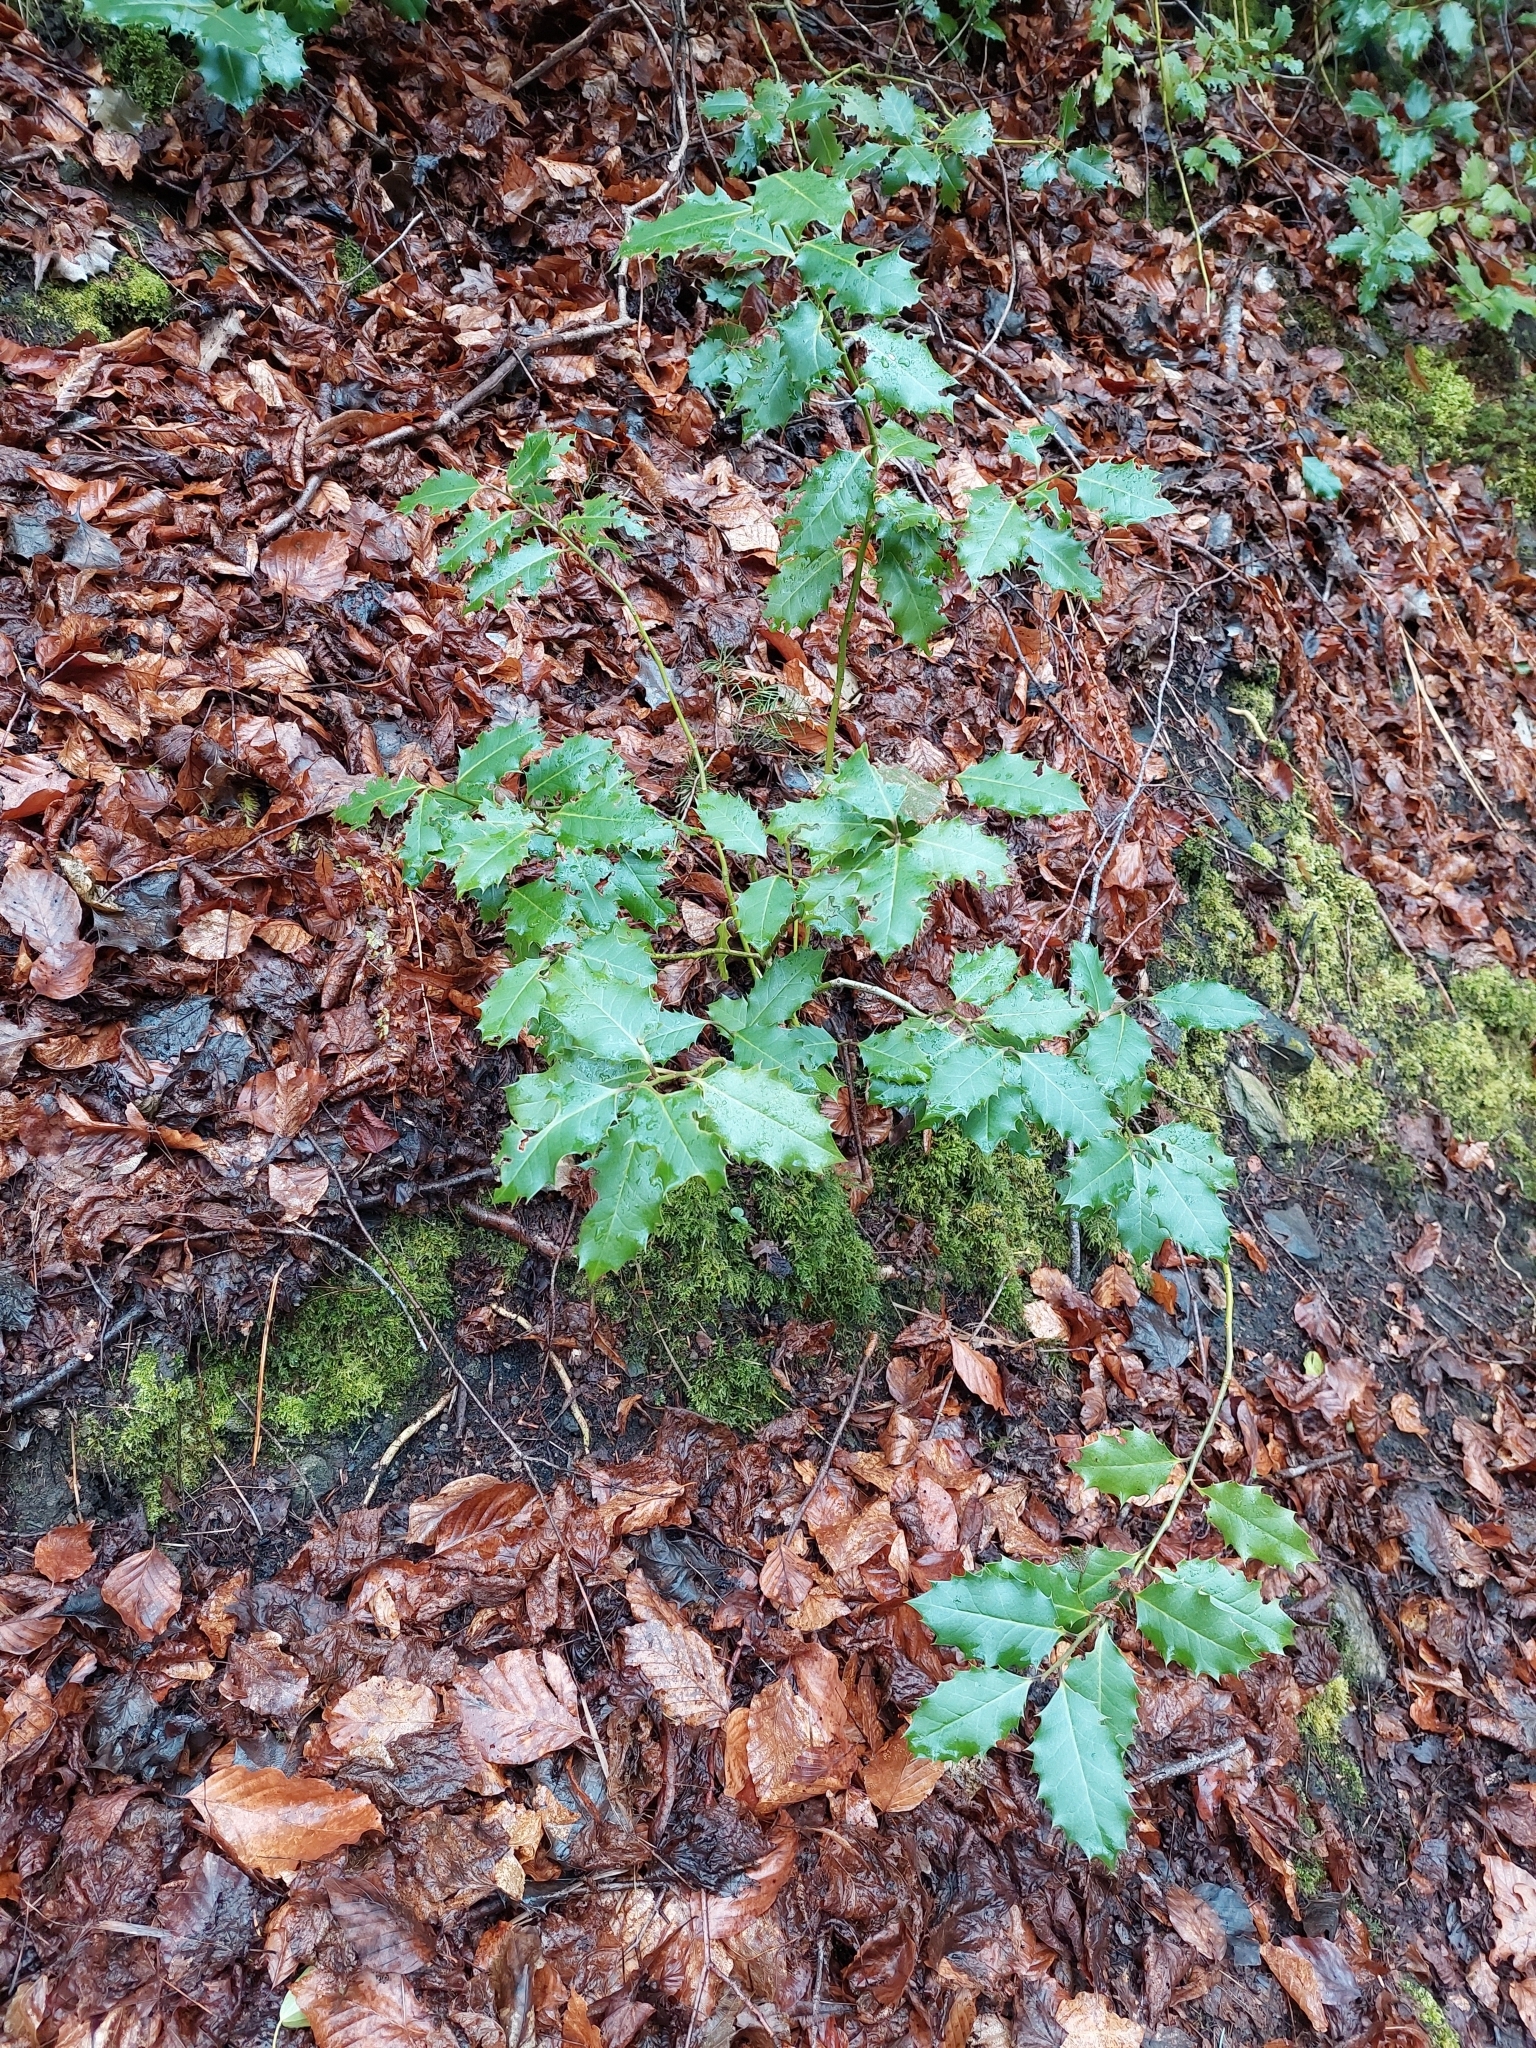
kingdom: Plantae
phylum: Tracheophyta
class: Magnoliopsida
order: Aquifoliales
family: Aquifoliaceae
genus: Ilex
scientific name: Ilex aquifolium
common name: English holly
